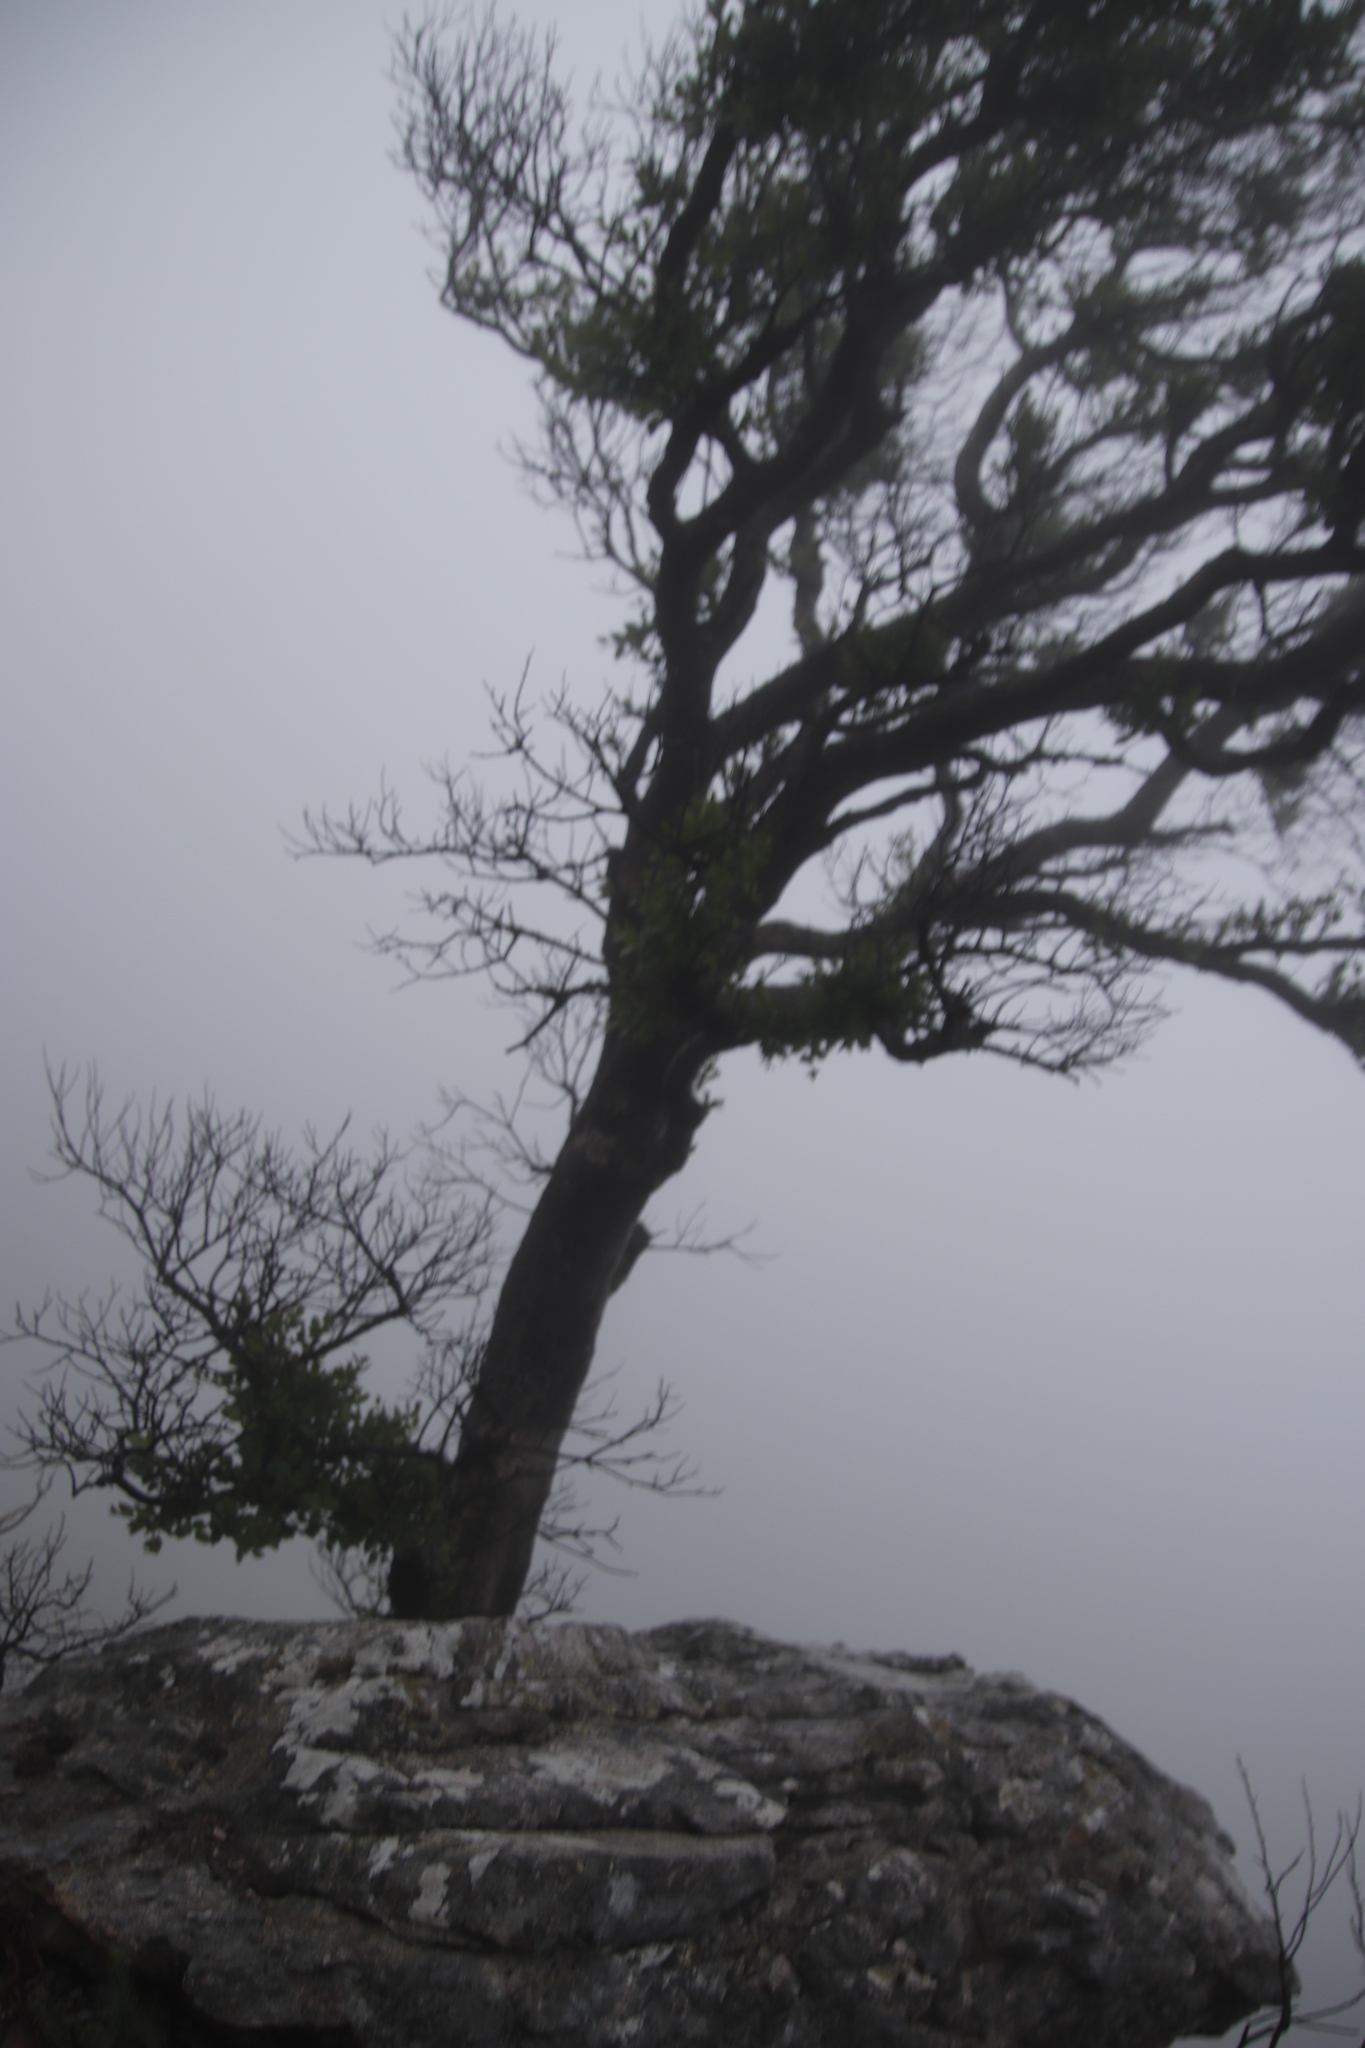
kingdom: Plantae
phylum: Tracheophyta
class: Magnoliopsida
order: Celastrales
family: Celastraceae
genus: Gymnosporia
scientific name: Gymnosporia laurina
